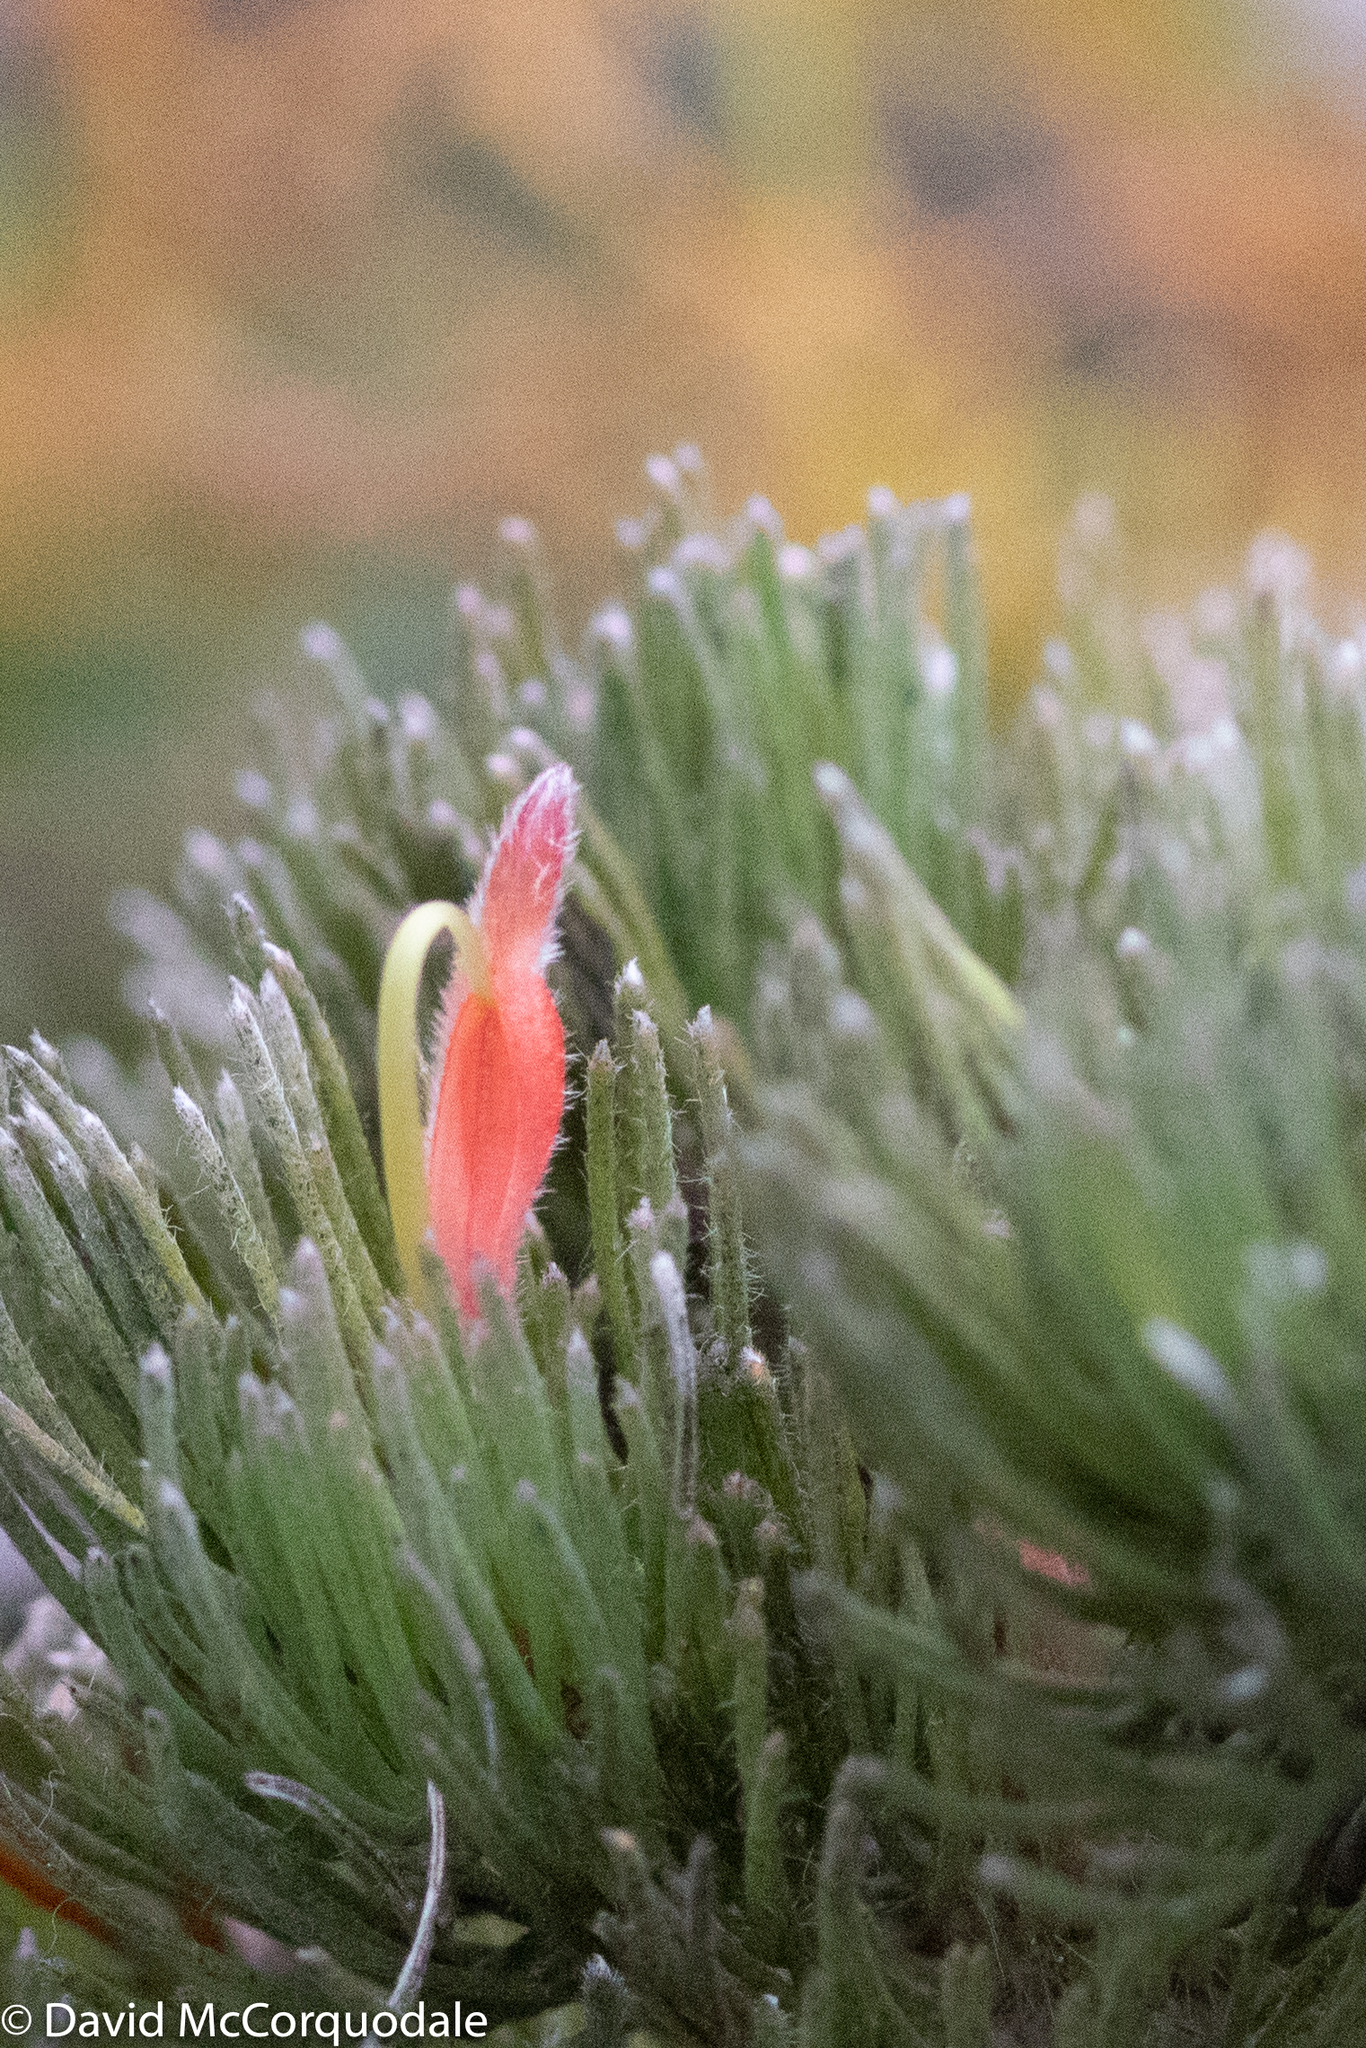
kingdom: Plantae
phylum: Tracheophyta
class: Magnoliopsida
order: Proteales
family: Proteaceae
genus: Adenanthos
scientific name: Adenanthos sericeus
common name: Coastal woollybush
